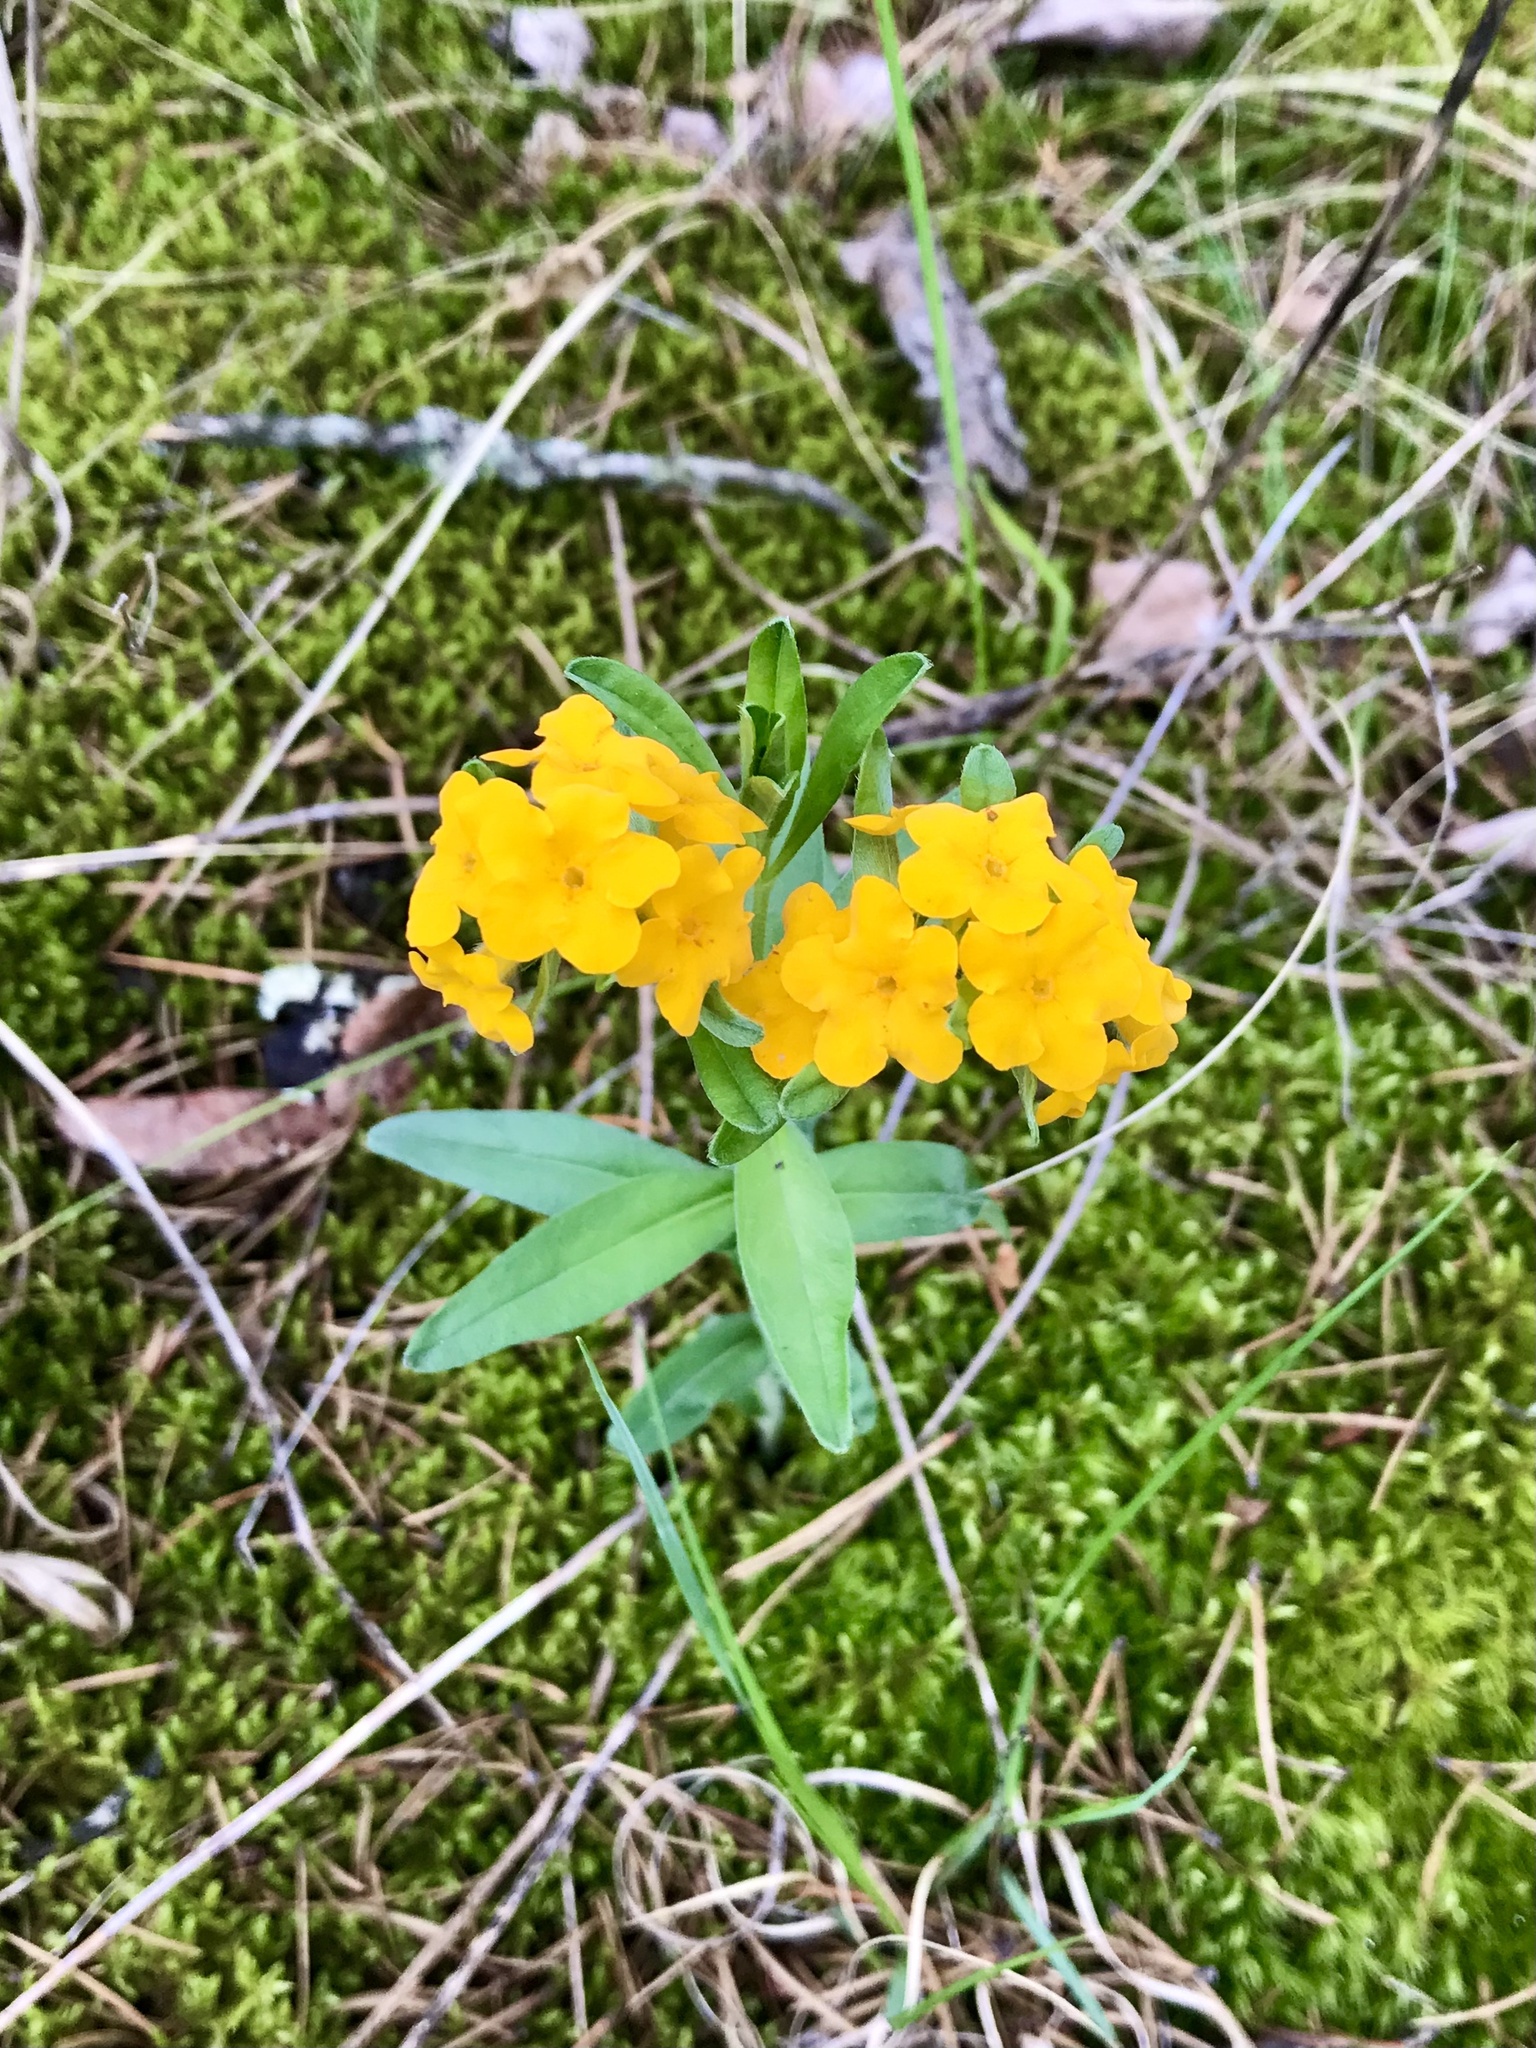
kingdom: Plantae
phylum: Tracheophyta
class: Magnoliopsida
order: Boraginales
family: Boraginaceae
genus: Lithospermum
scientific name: Lithospermum canescens
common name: Hoary puccoon
